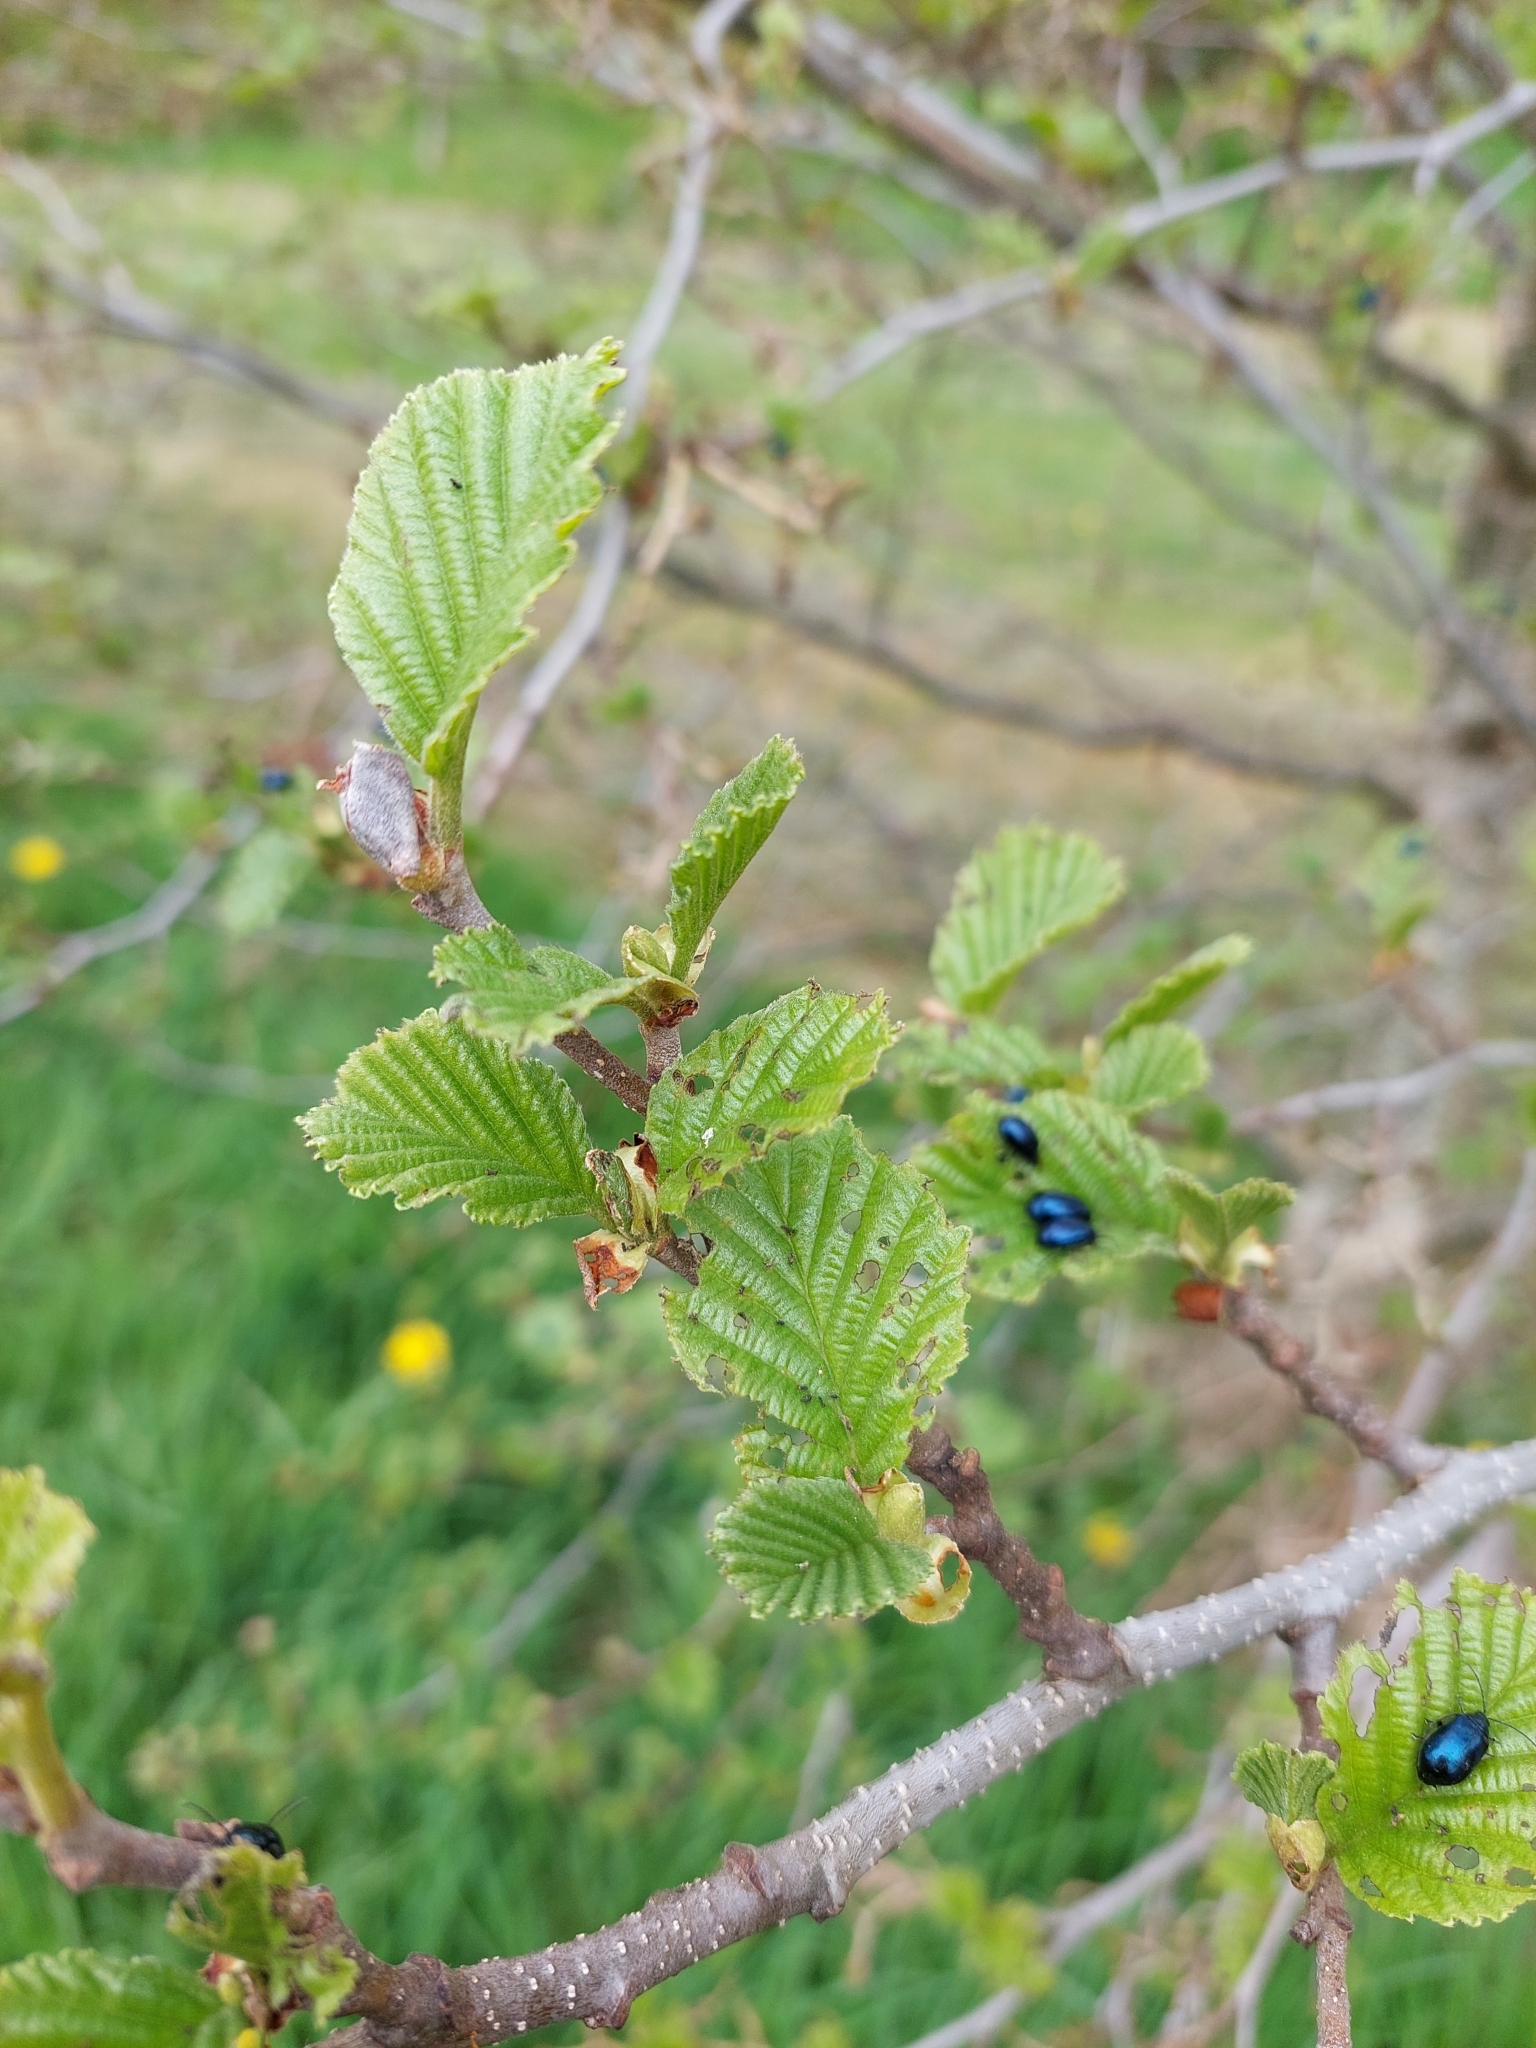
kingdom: Plantae
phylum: Tracheophyta
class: Magnoliopsida
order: Fagales
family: Betulaceae
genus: Alnus
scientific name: Alnus glutinosa
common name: Black alder
